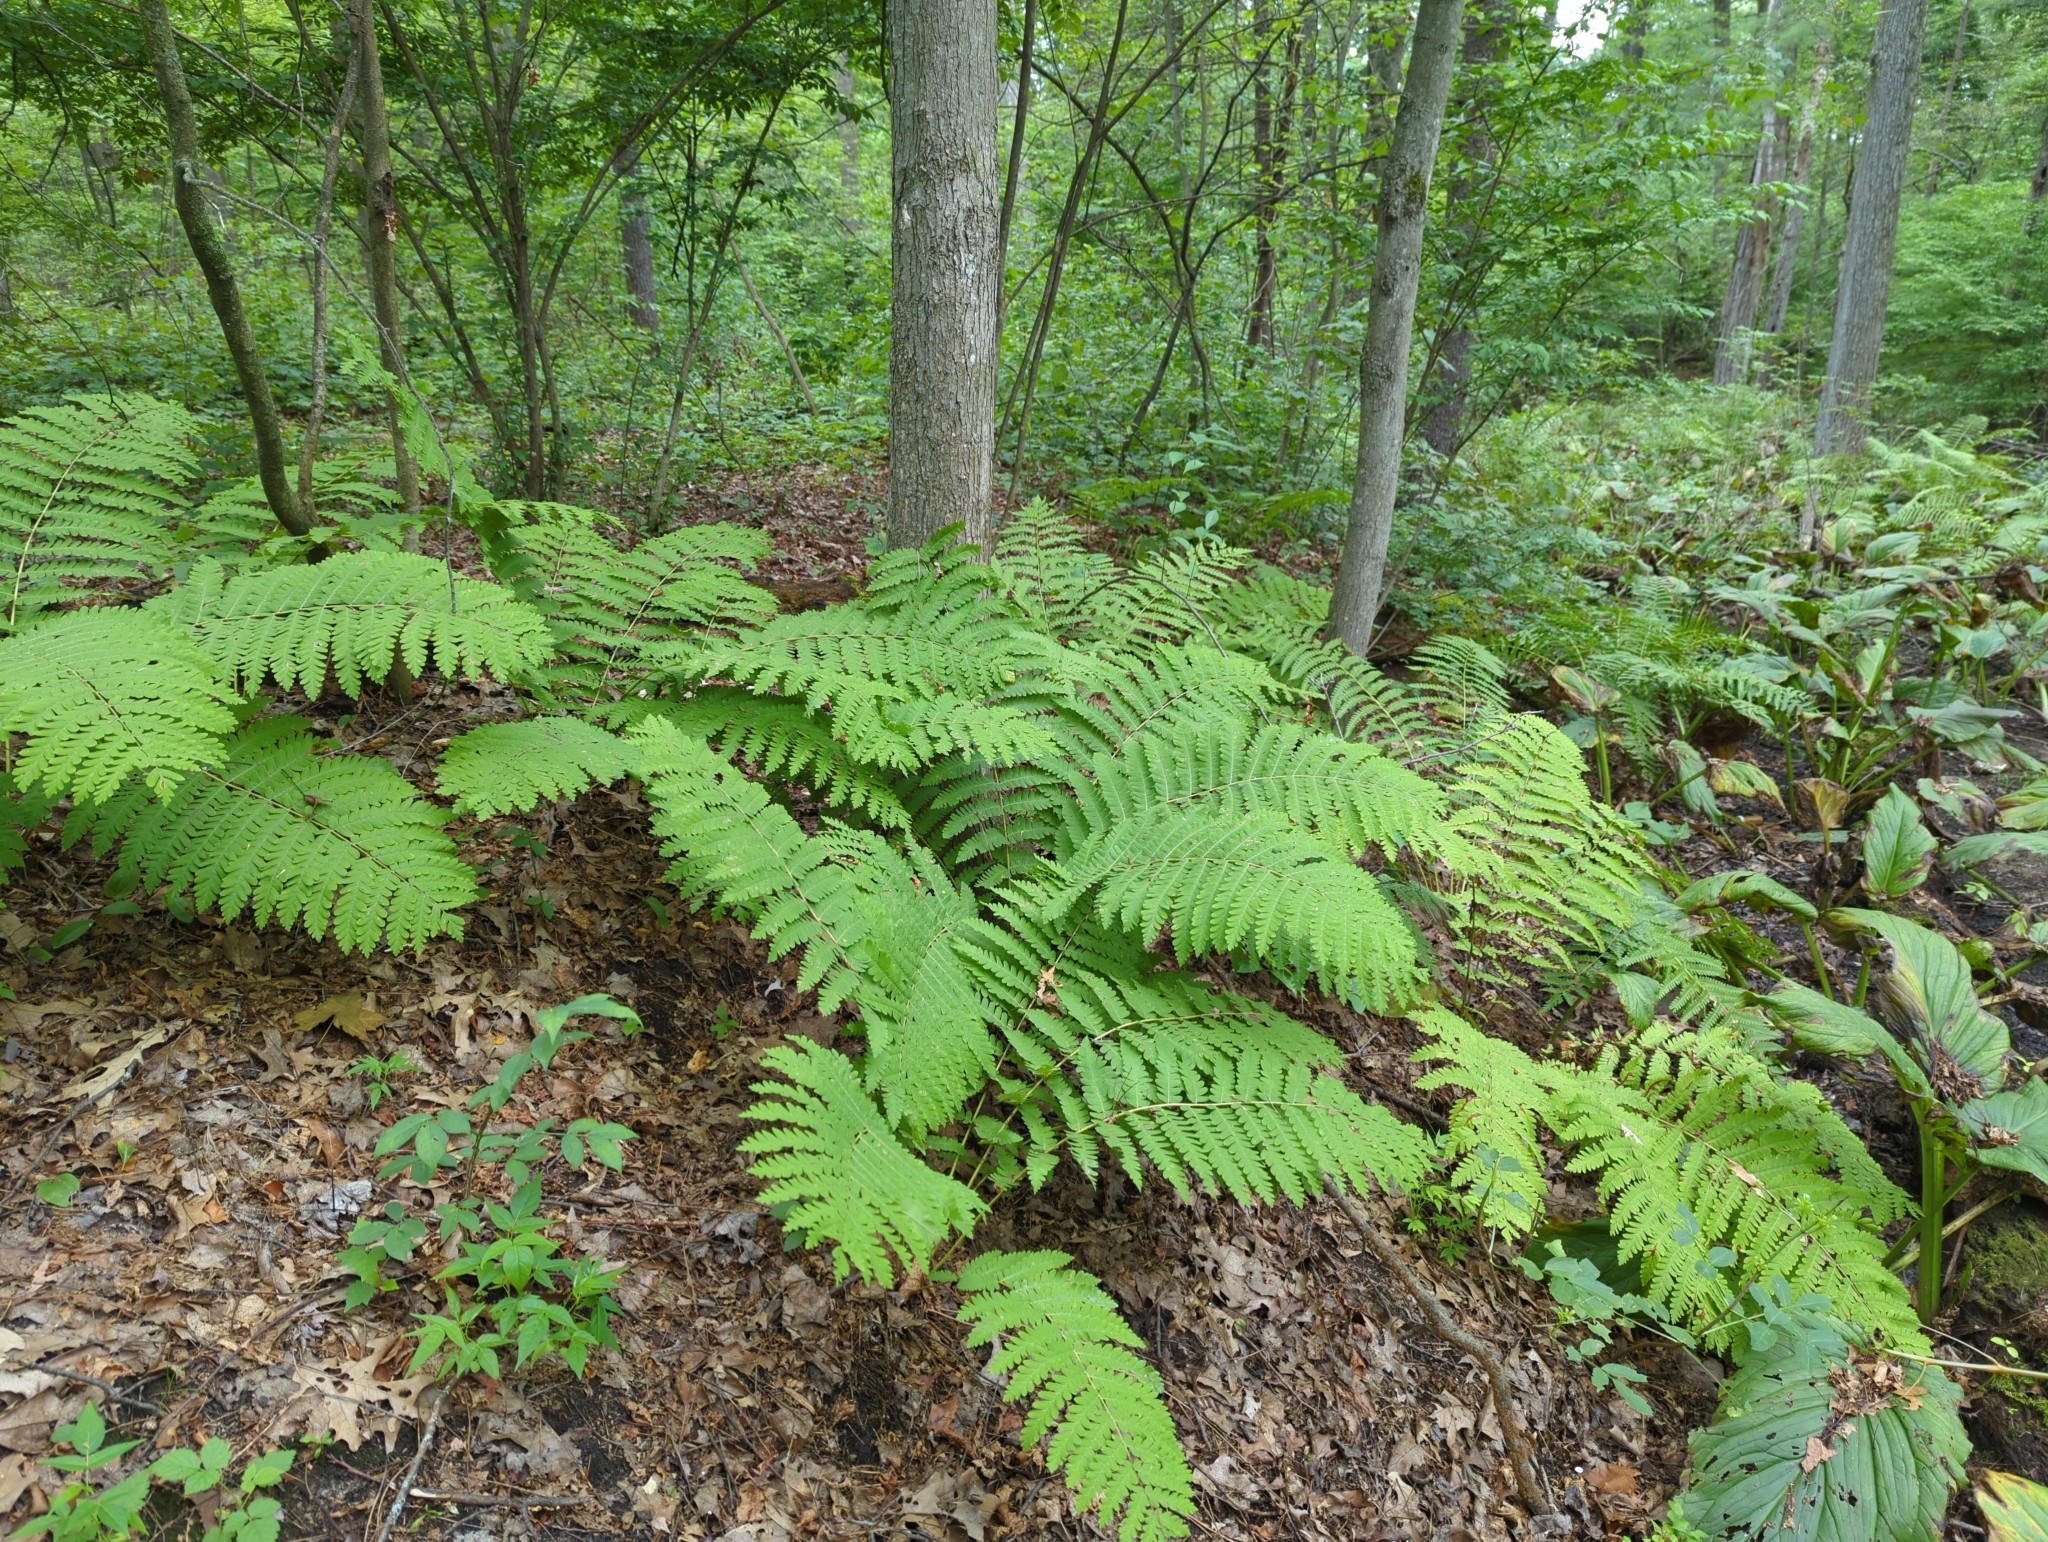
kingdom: Plantae
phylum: Tracheophyta
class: Polypodiopsida
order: Osmundales
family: Osmundaceae
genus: Claytosmunda
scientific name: Claytosmunda claytoniana
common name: Clayton's fern
